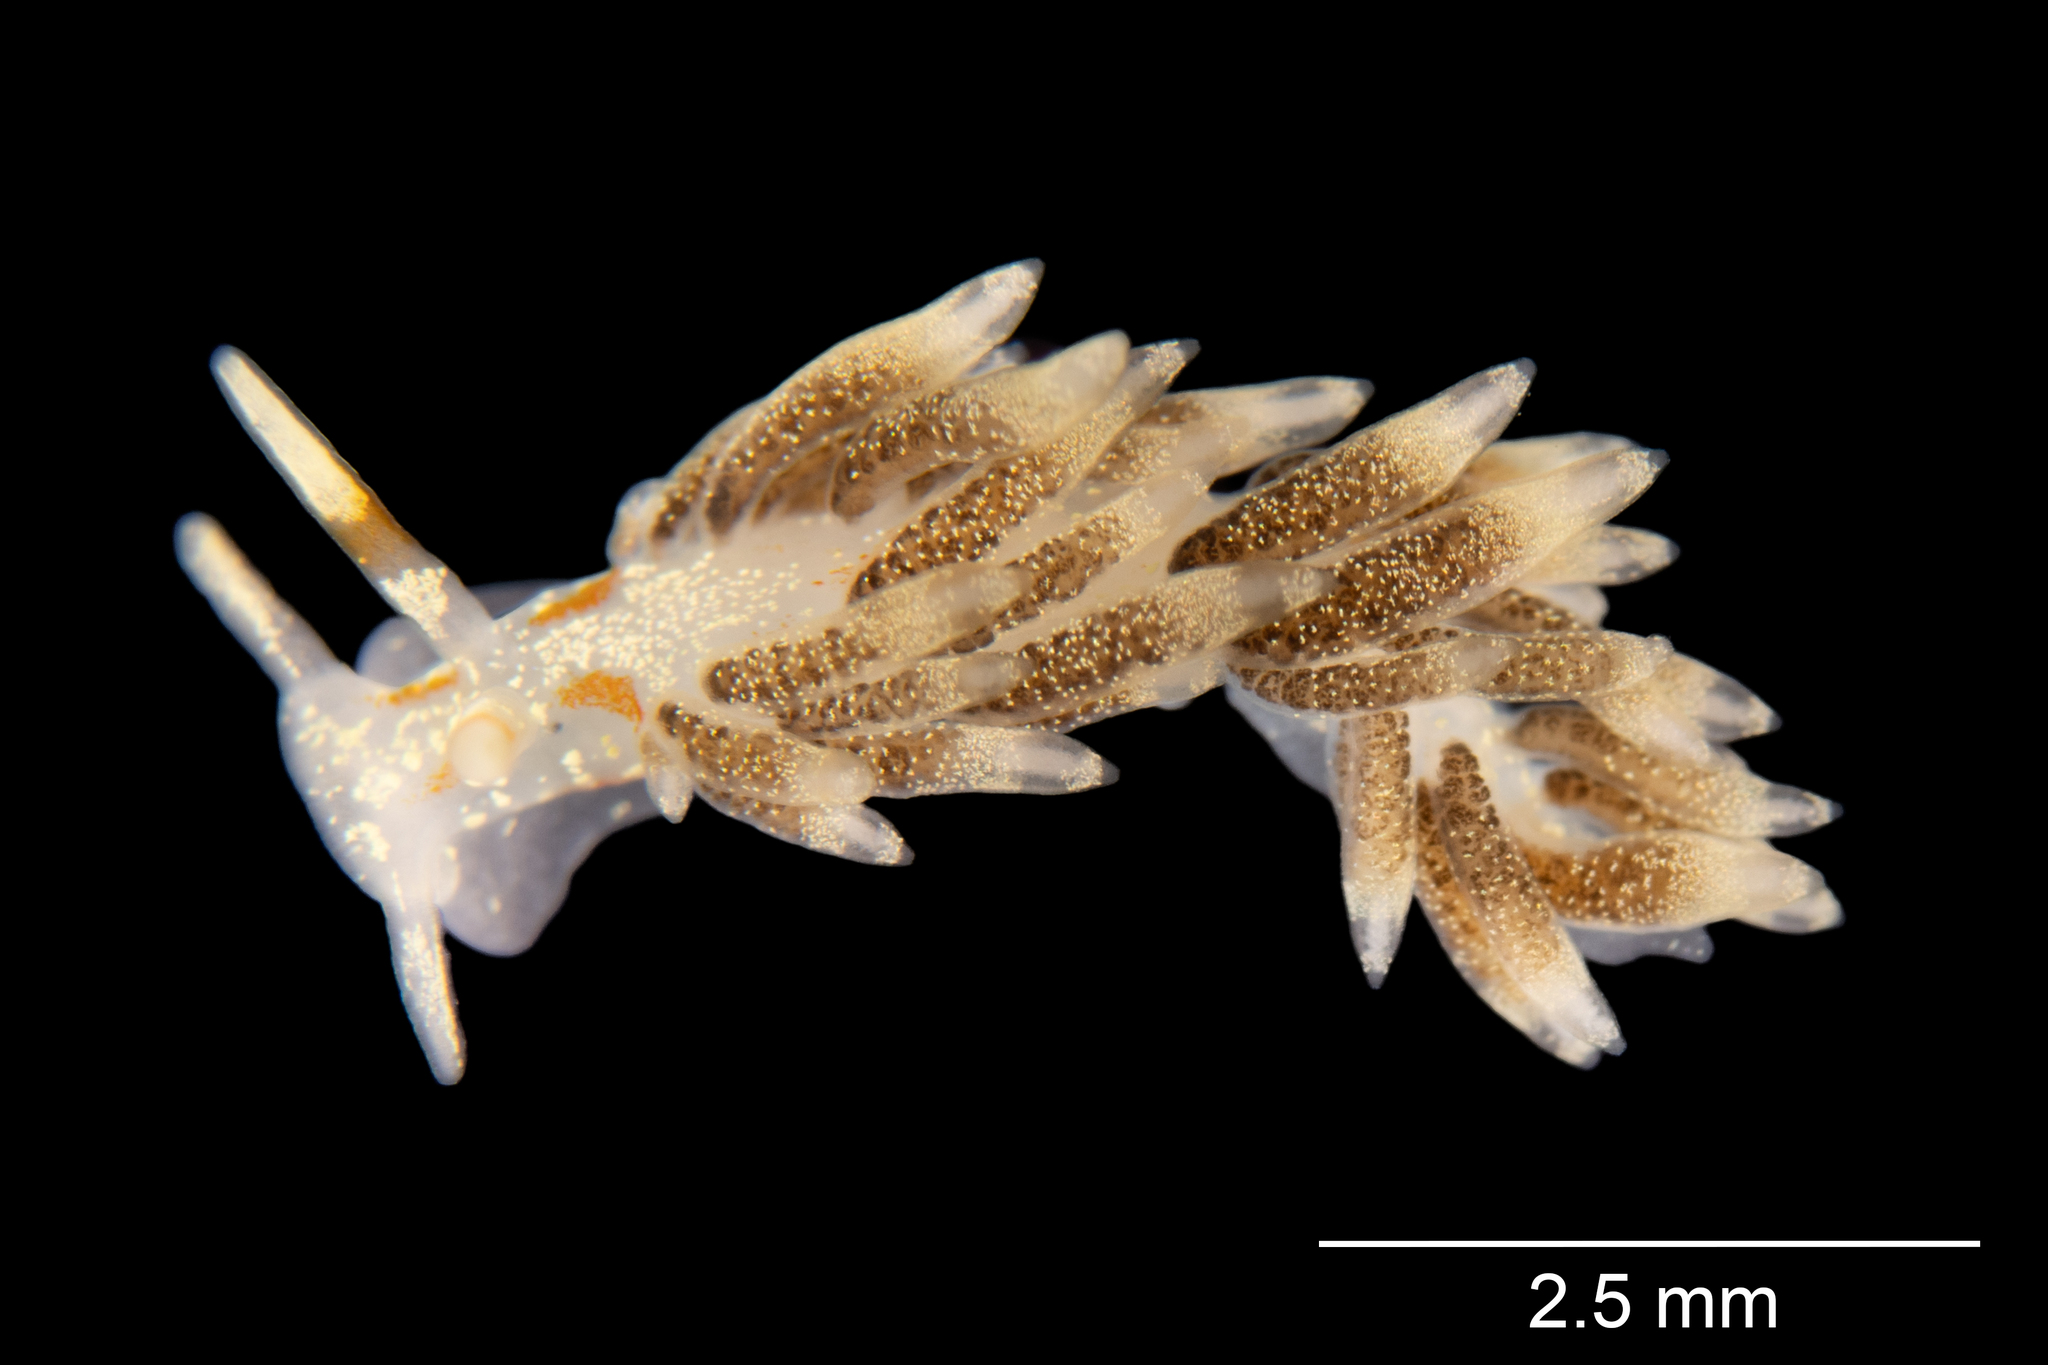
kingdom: Animalia
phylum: Mollusca
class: Gastropoda
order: Nudibranchia
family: Trinchesiidae
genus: Trinchesia
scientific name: Trinchesia foliata
